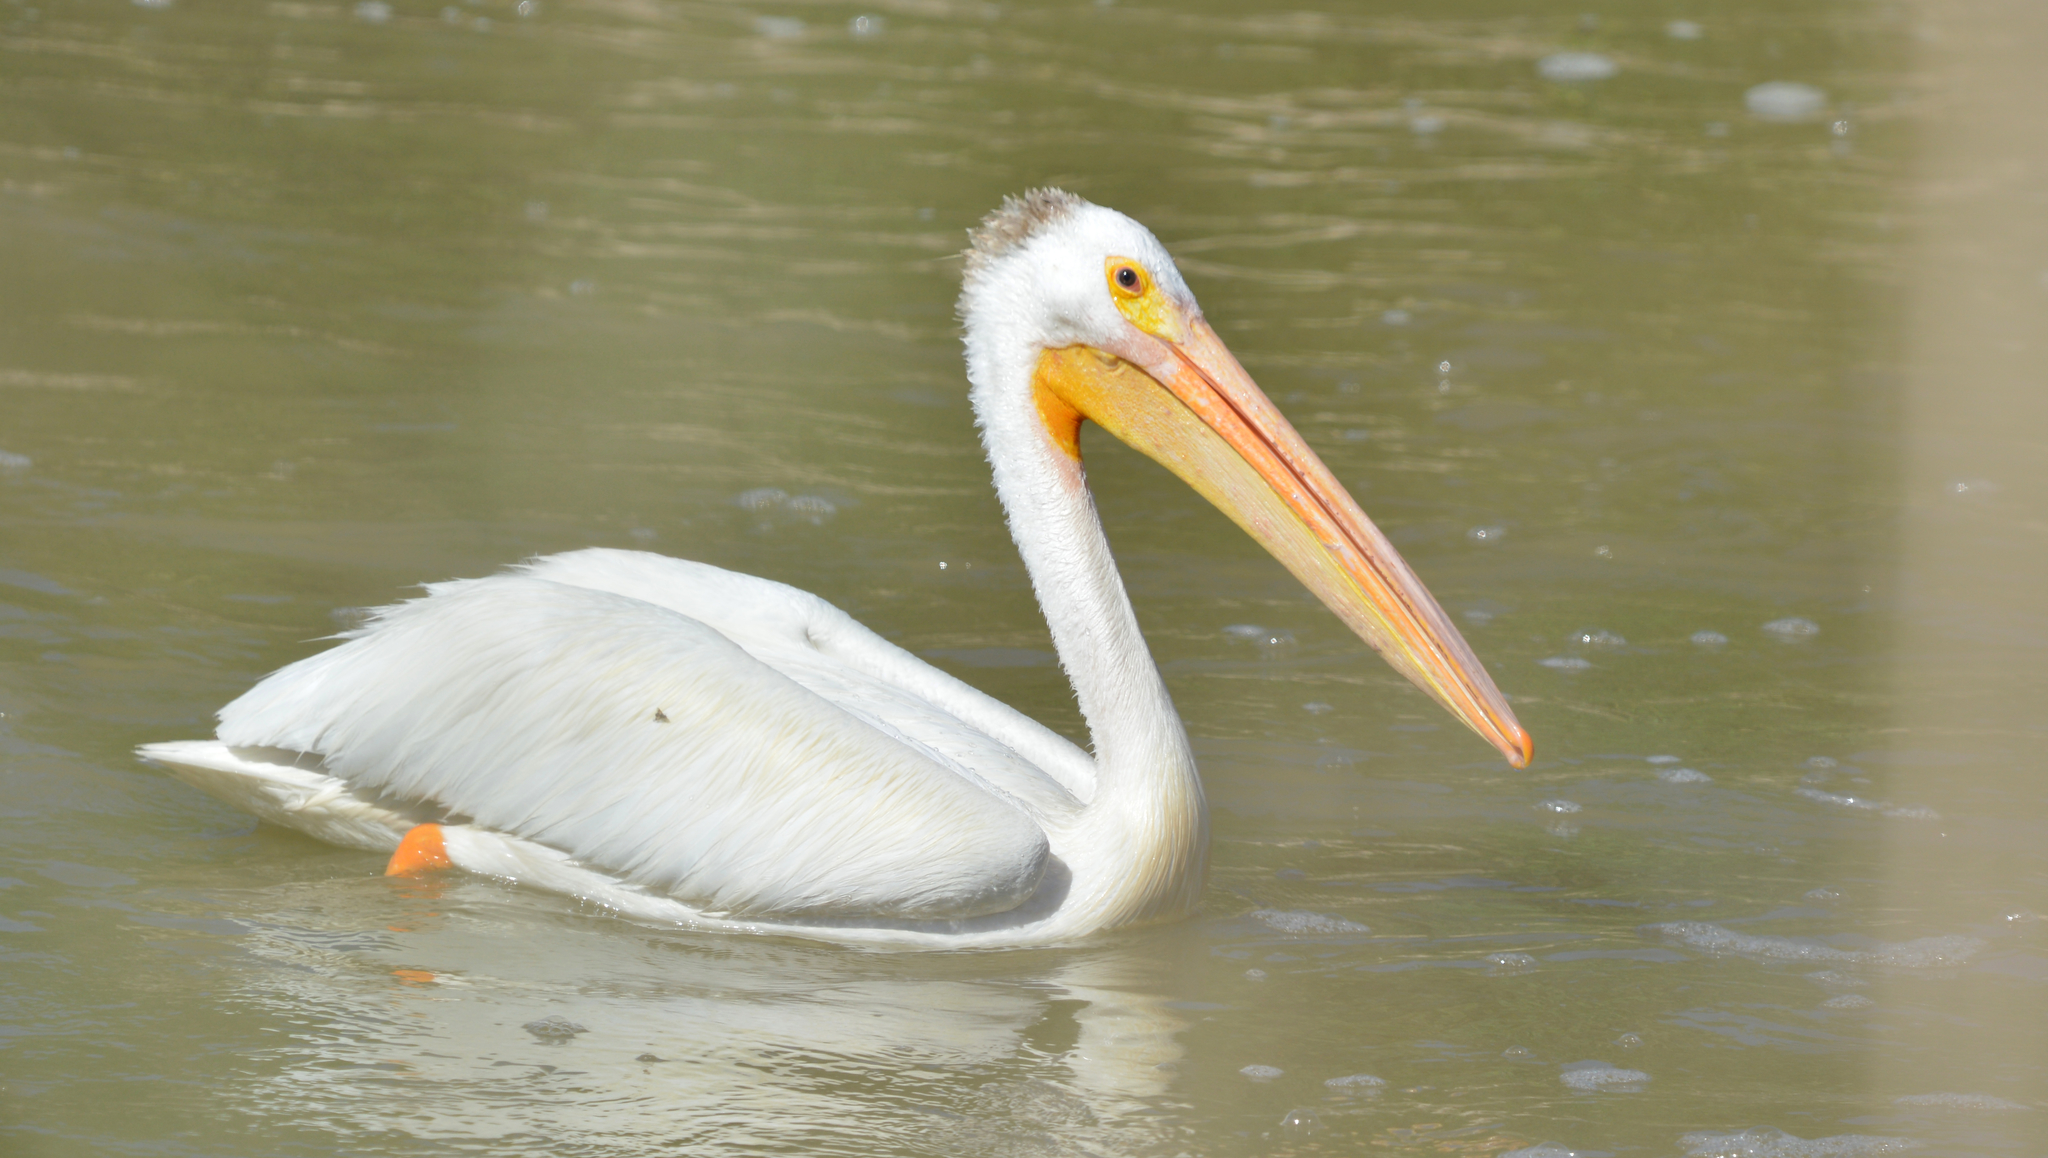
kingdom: Animalia
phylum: Chordata
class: Aves
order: Pelecaniformes
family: Pelecanidae
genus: Pelecanus
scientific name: Pelecanus erythrorhynchos
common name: American white pelican
